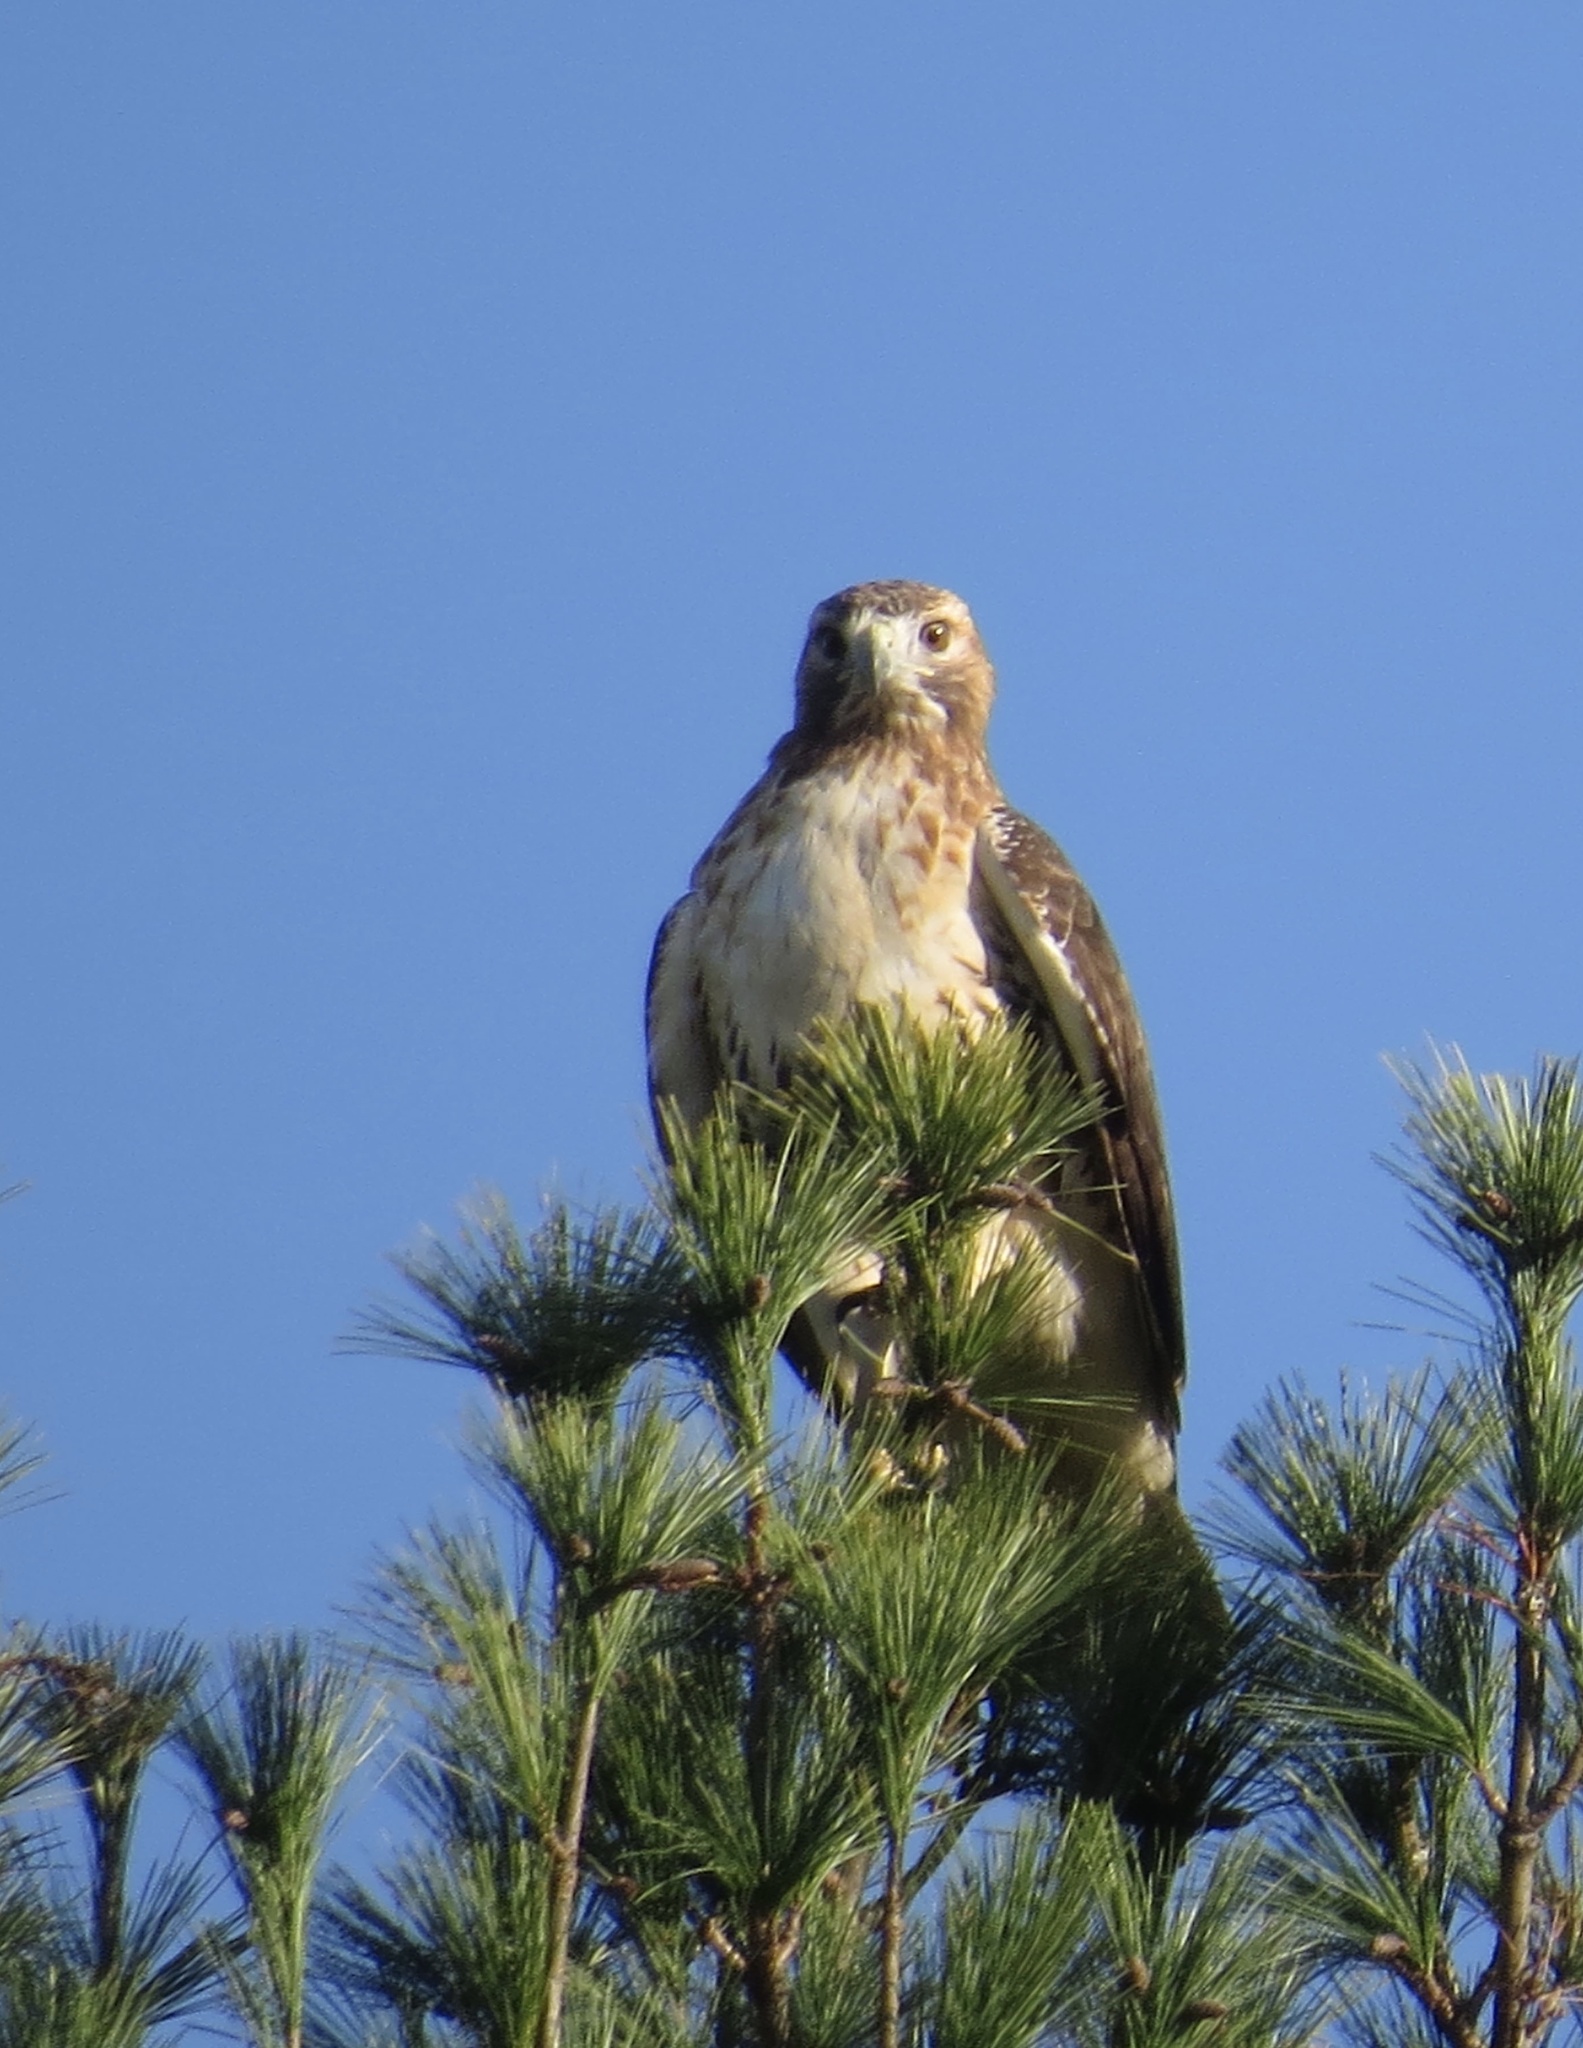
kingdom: Animalia
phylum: Chordata
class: Aves
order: Accipitriformes
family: Accipitridae
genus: Buteo
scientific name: Buteo jamaicensis
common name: Red-tailed hawk
